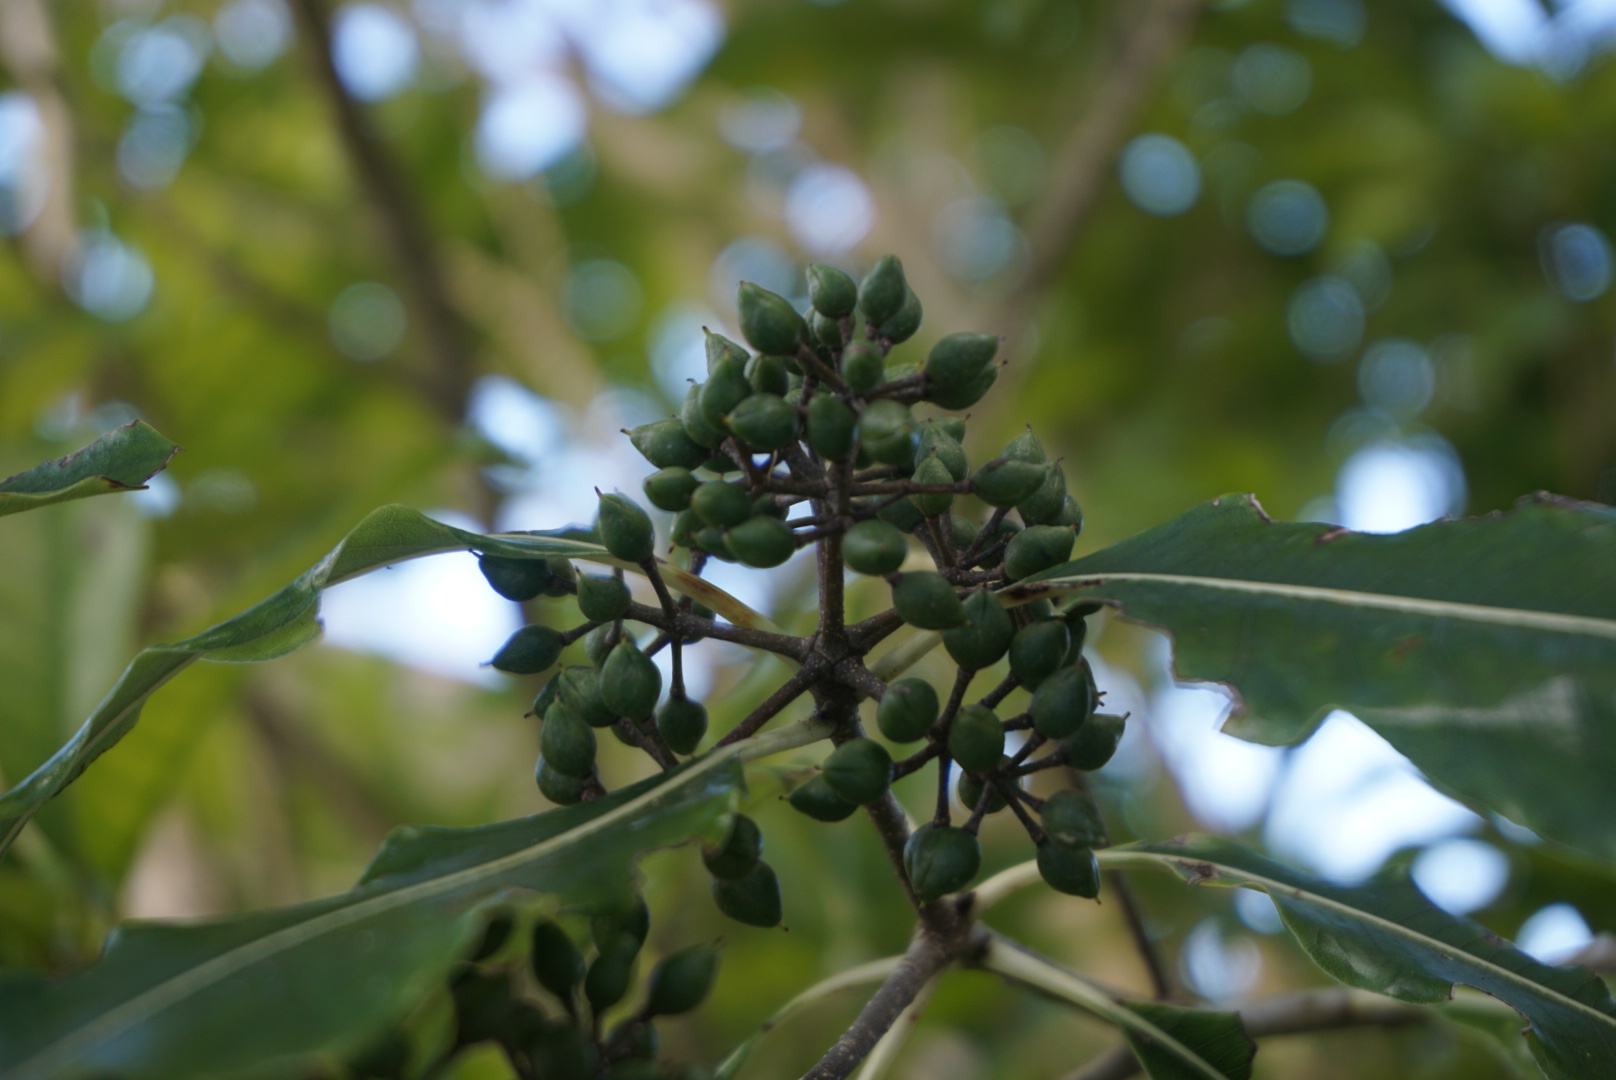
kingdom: Plantae
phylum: Tracheophyta
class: Magnoliopsida
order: Apiales
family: Pittosporaceae
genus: Pittosporum
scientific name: Pittosporum eugenioides
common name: Lemonwood
